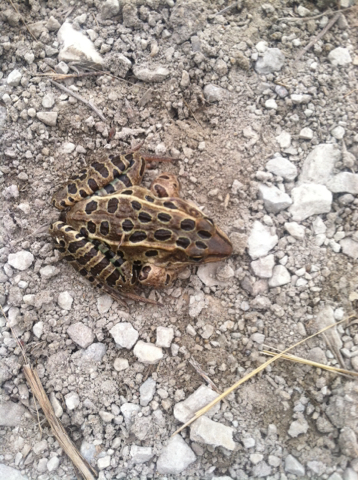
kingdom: Animalia
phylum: Chordata
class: Amphibia
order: Anura
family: Ranidae
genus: Lithobates
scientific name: Lithobates pipiens
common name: Northern leopard frog
